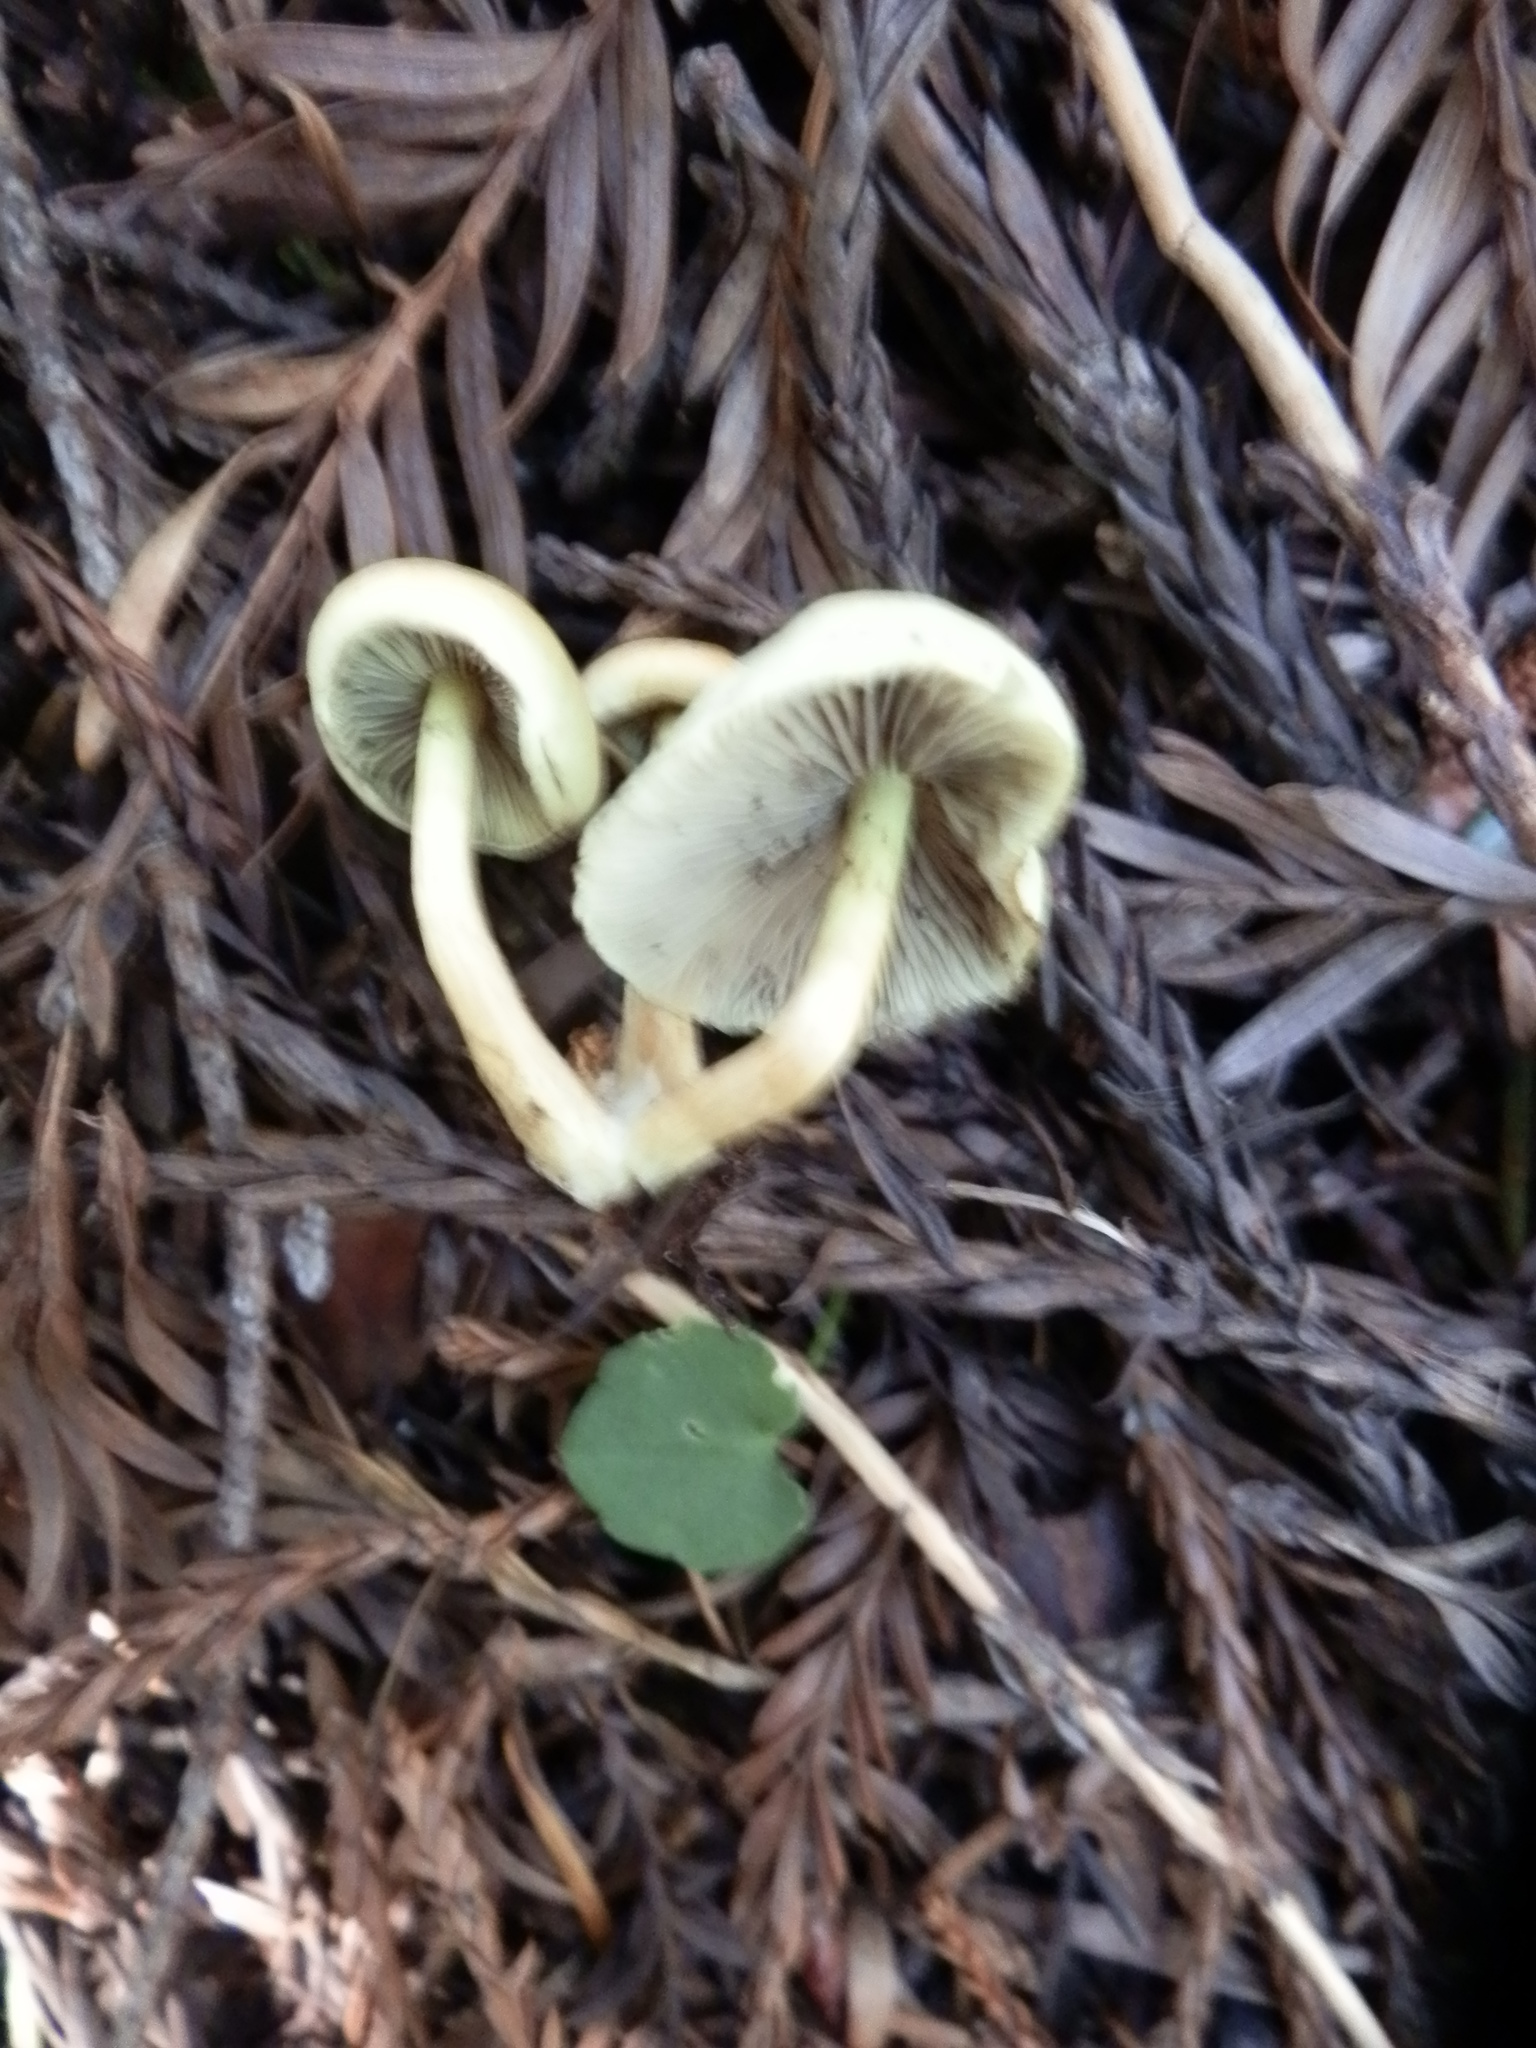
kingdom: Fungi
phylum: Basidiomycota
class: Agaricomycetes
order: Agaricales
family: Strophariaceae
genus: Hypholoma
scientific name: Hypholoma fasciculare
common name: Sulphur tuft
